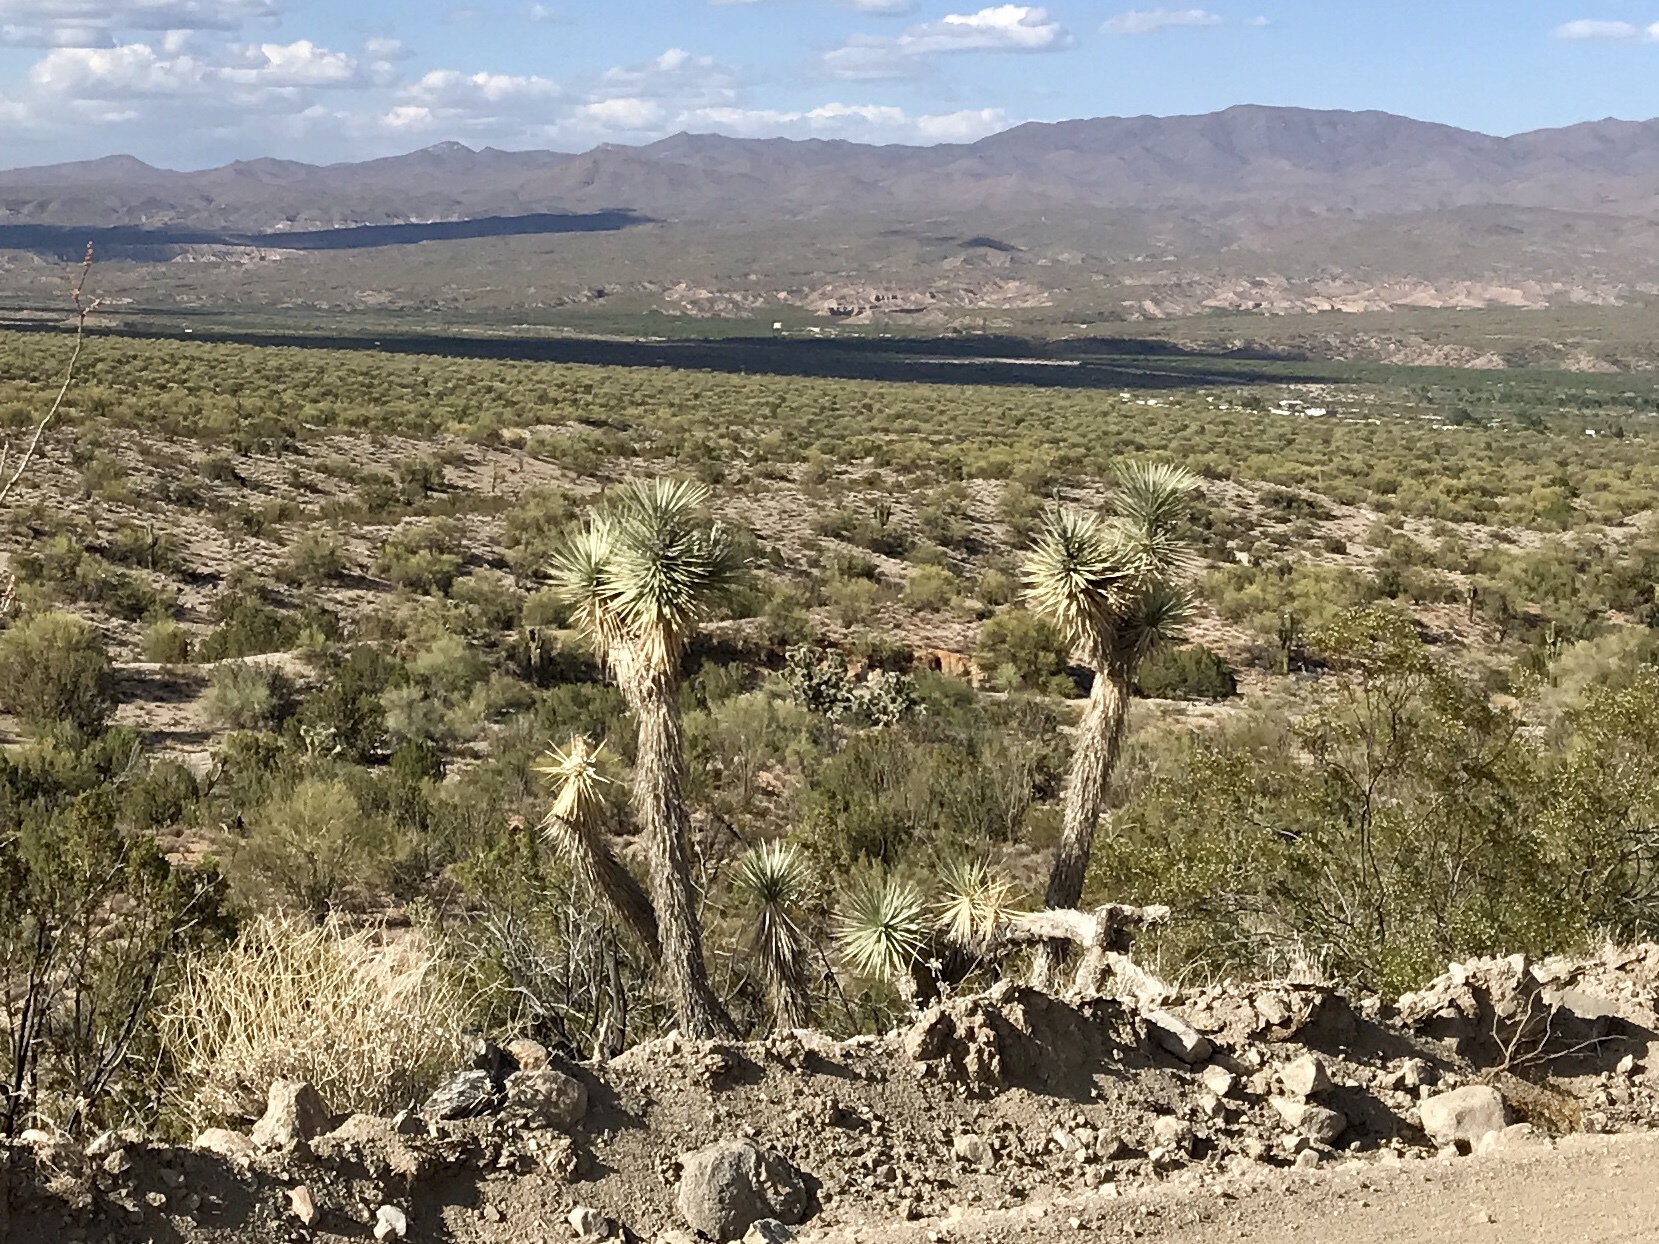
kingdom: Plantae
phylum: Tracheophyta
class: Liliopsida
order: Asparagales
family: Asparagaceae
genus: Yucca
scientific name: Yucca brevifolia
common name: Joshua tree
